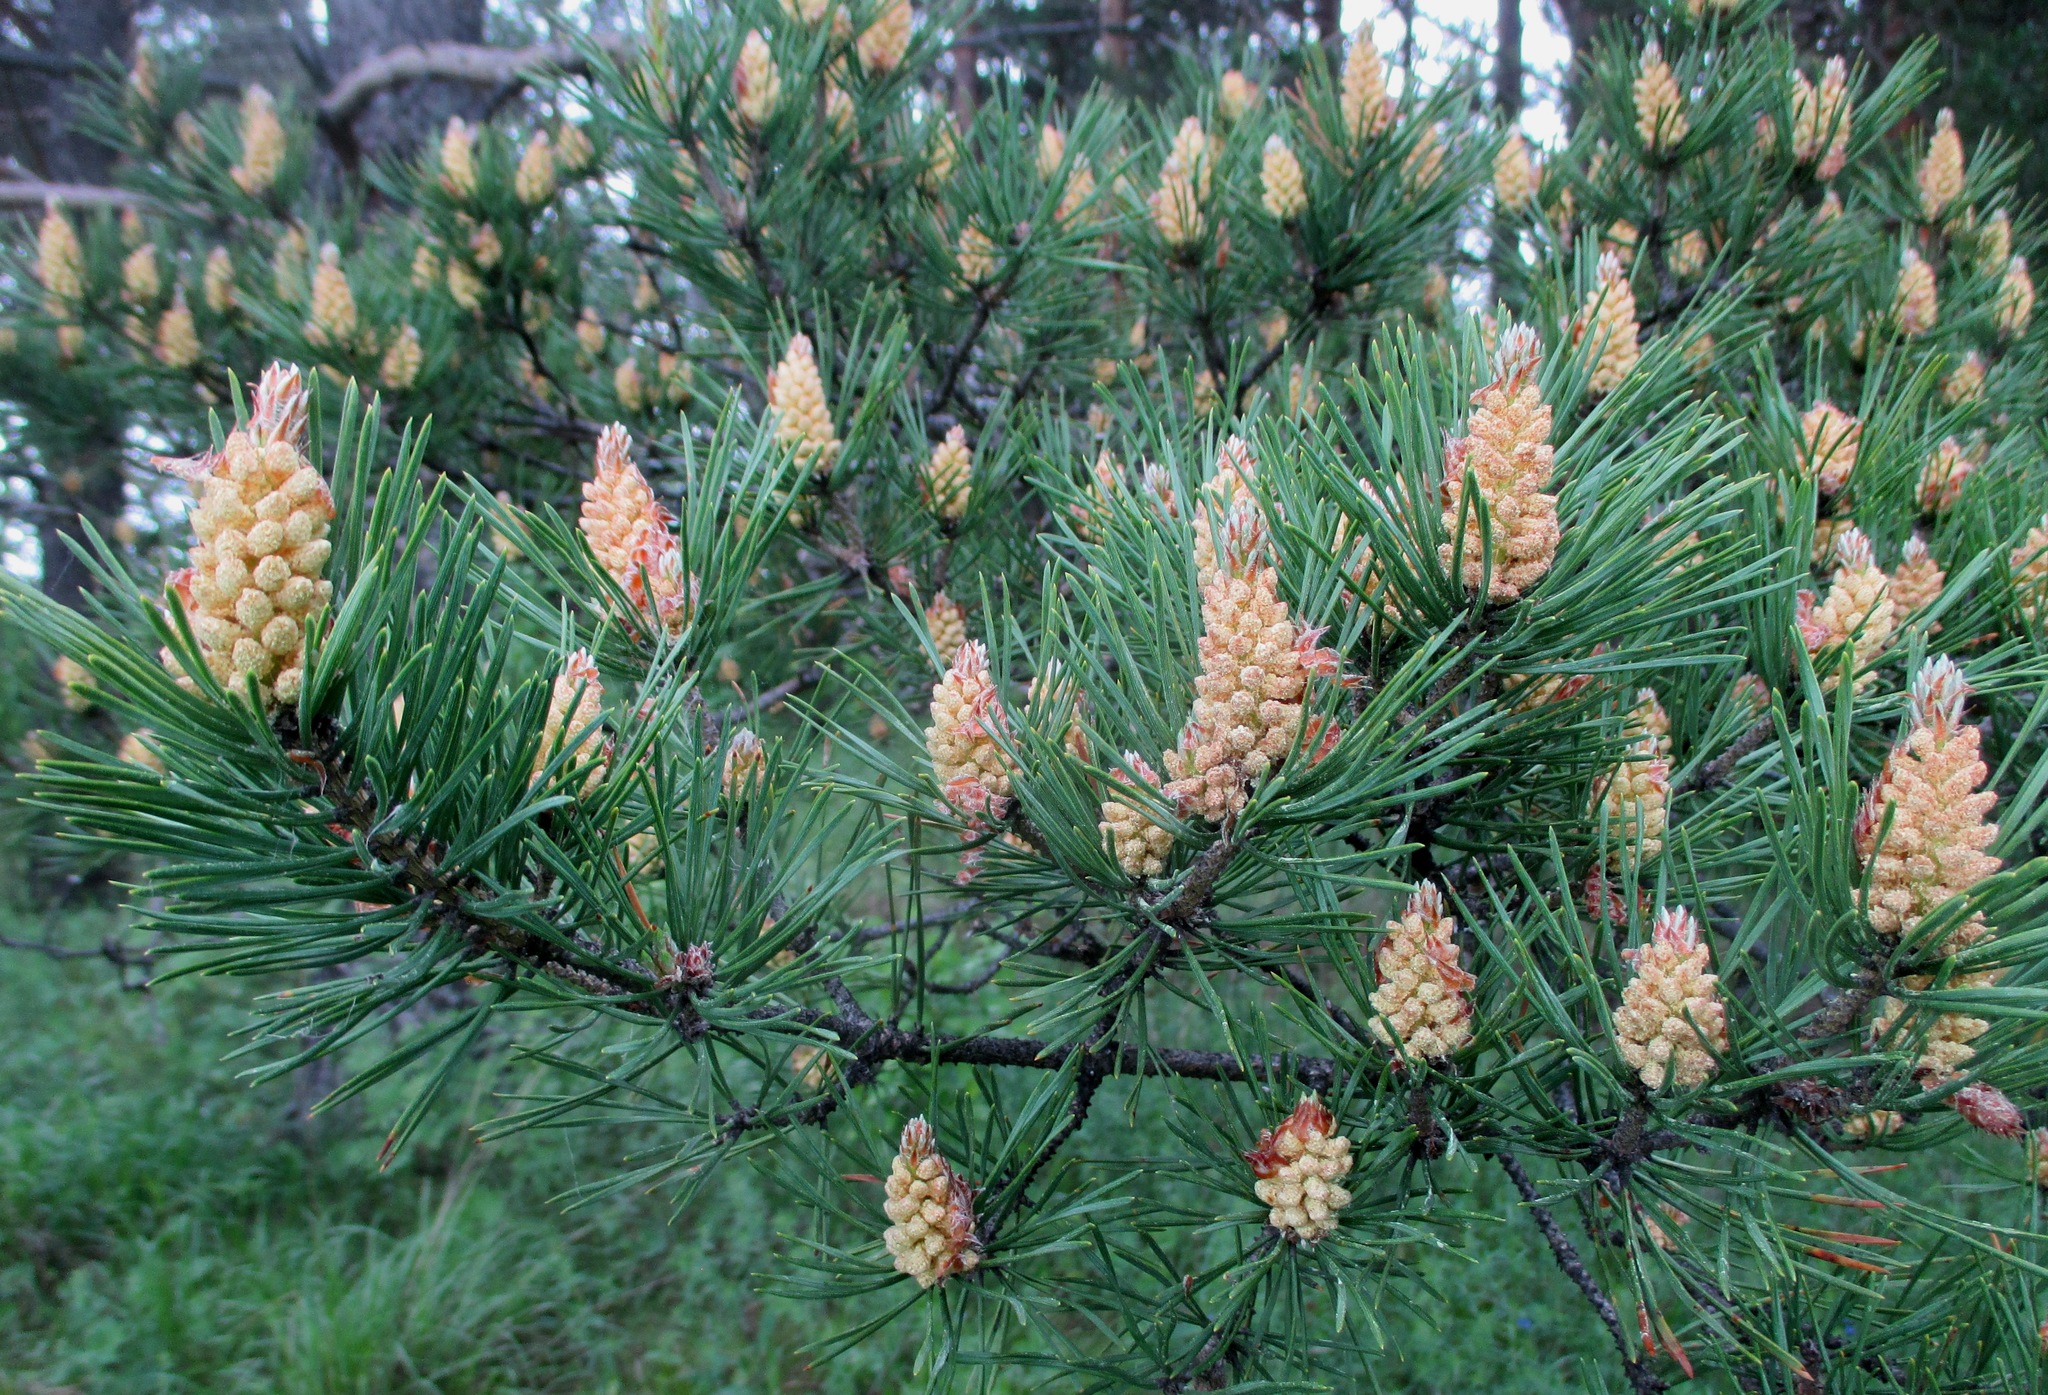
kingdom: Plantae
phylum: Tracheophyta
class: Pinopsida
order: Pinales
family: Pinaceae
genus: Pinus
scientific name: Pinus sylvestris
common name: Scots pine
